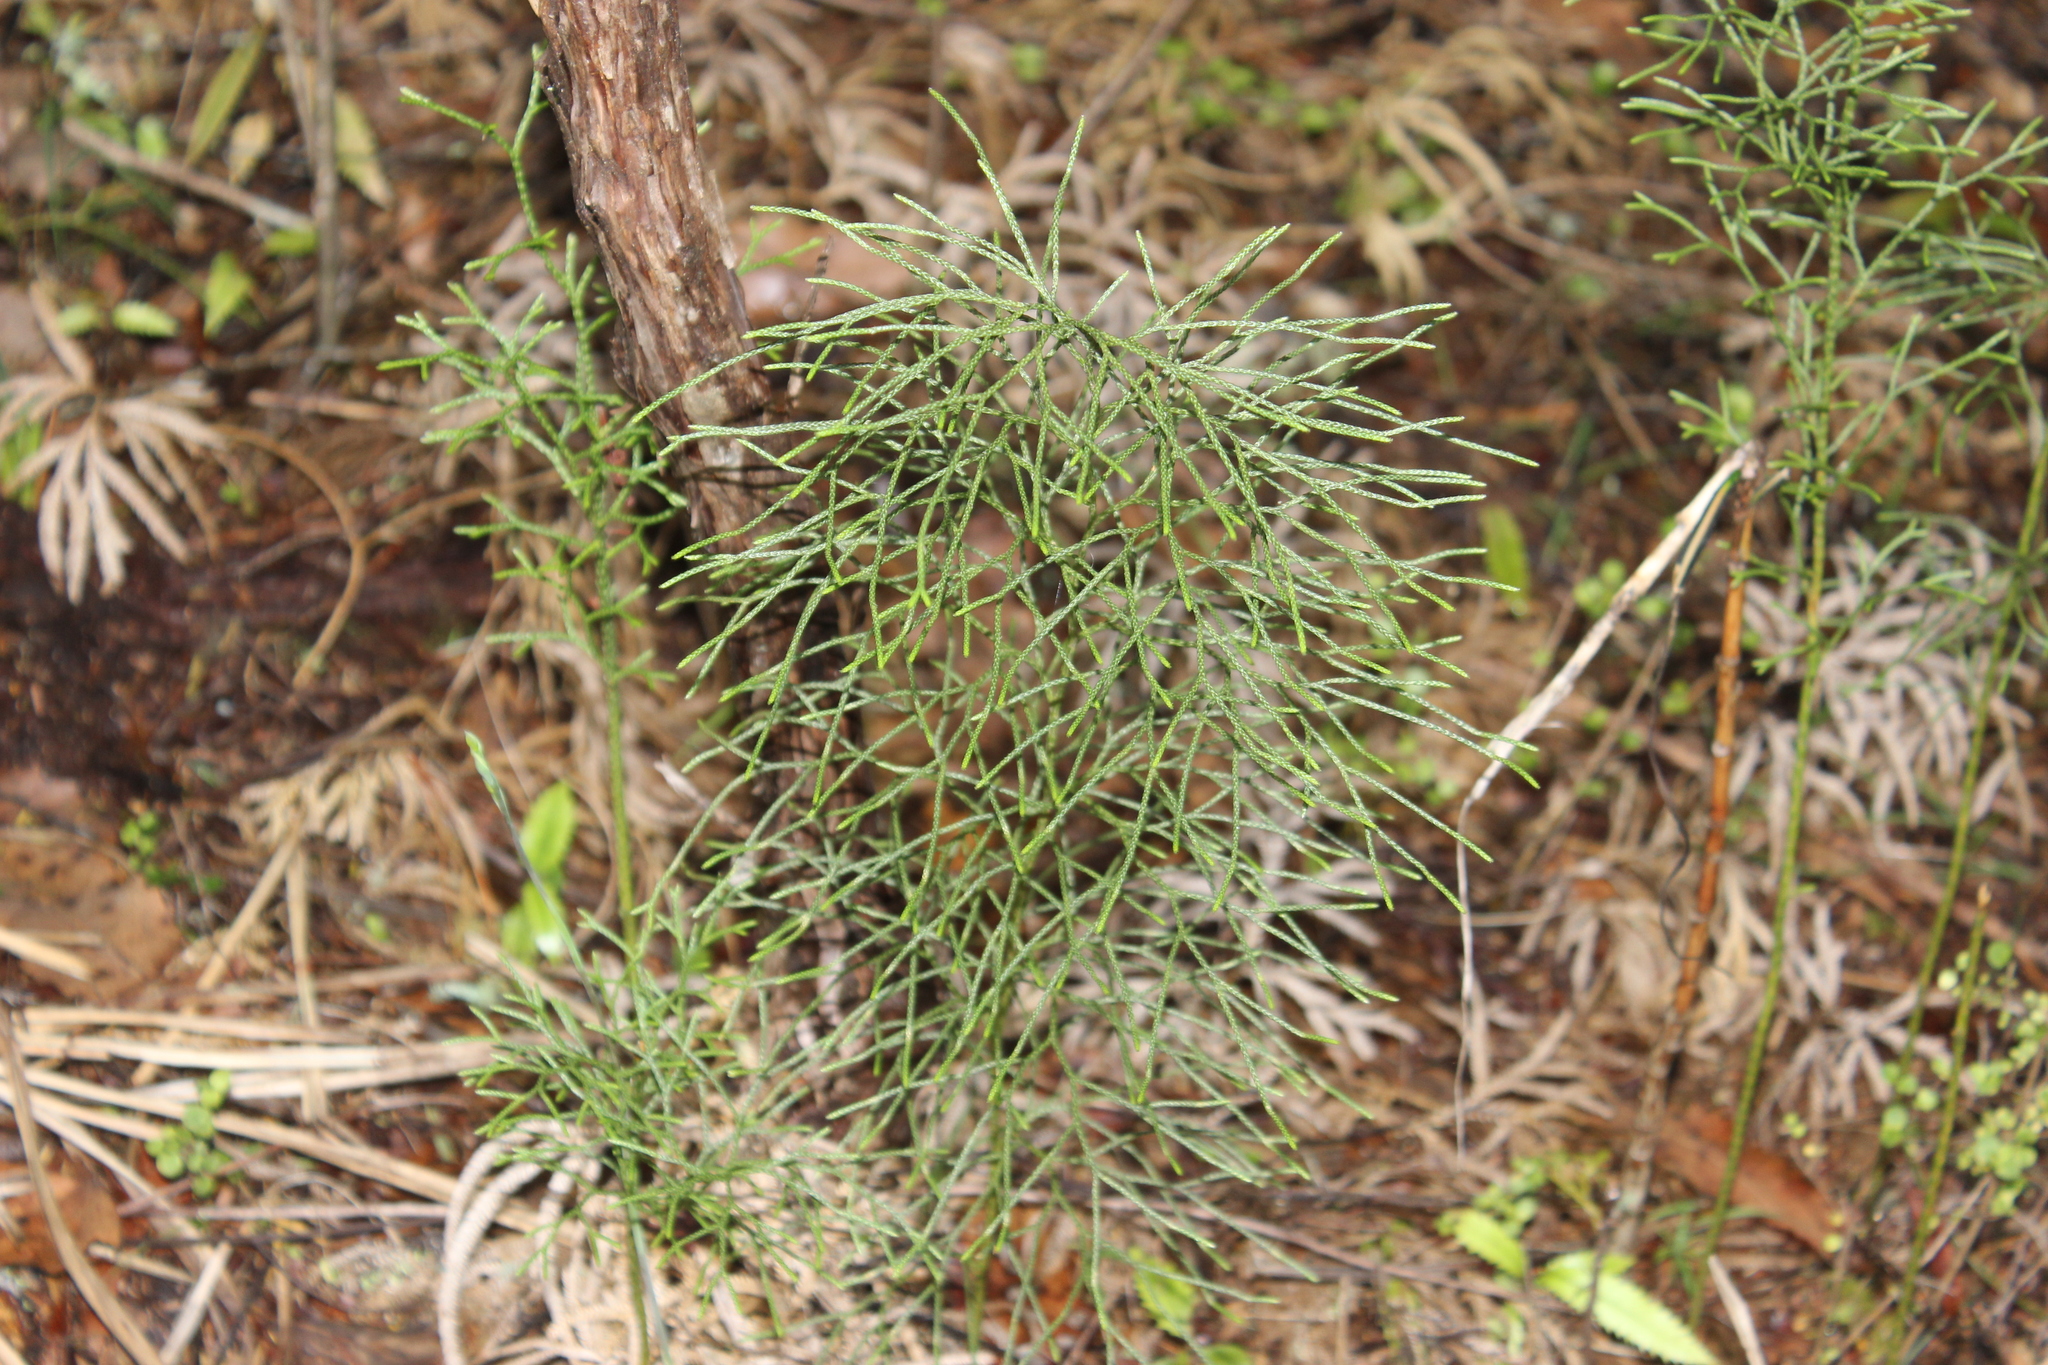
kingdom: Plantae
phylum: Tracheophyta
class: Lycopodiopsida
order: Lycopodiales
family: Lycopodiaceae
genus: Pseudolycopodium
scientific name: Pseudolycopodium densum
